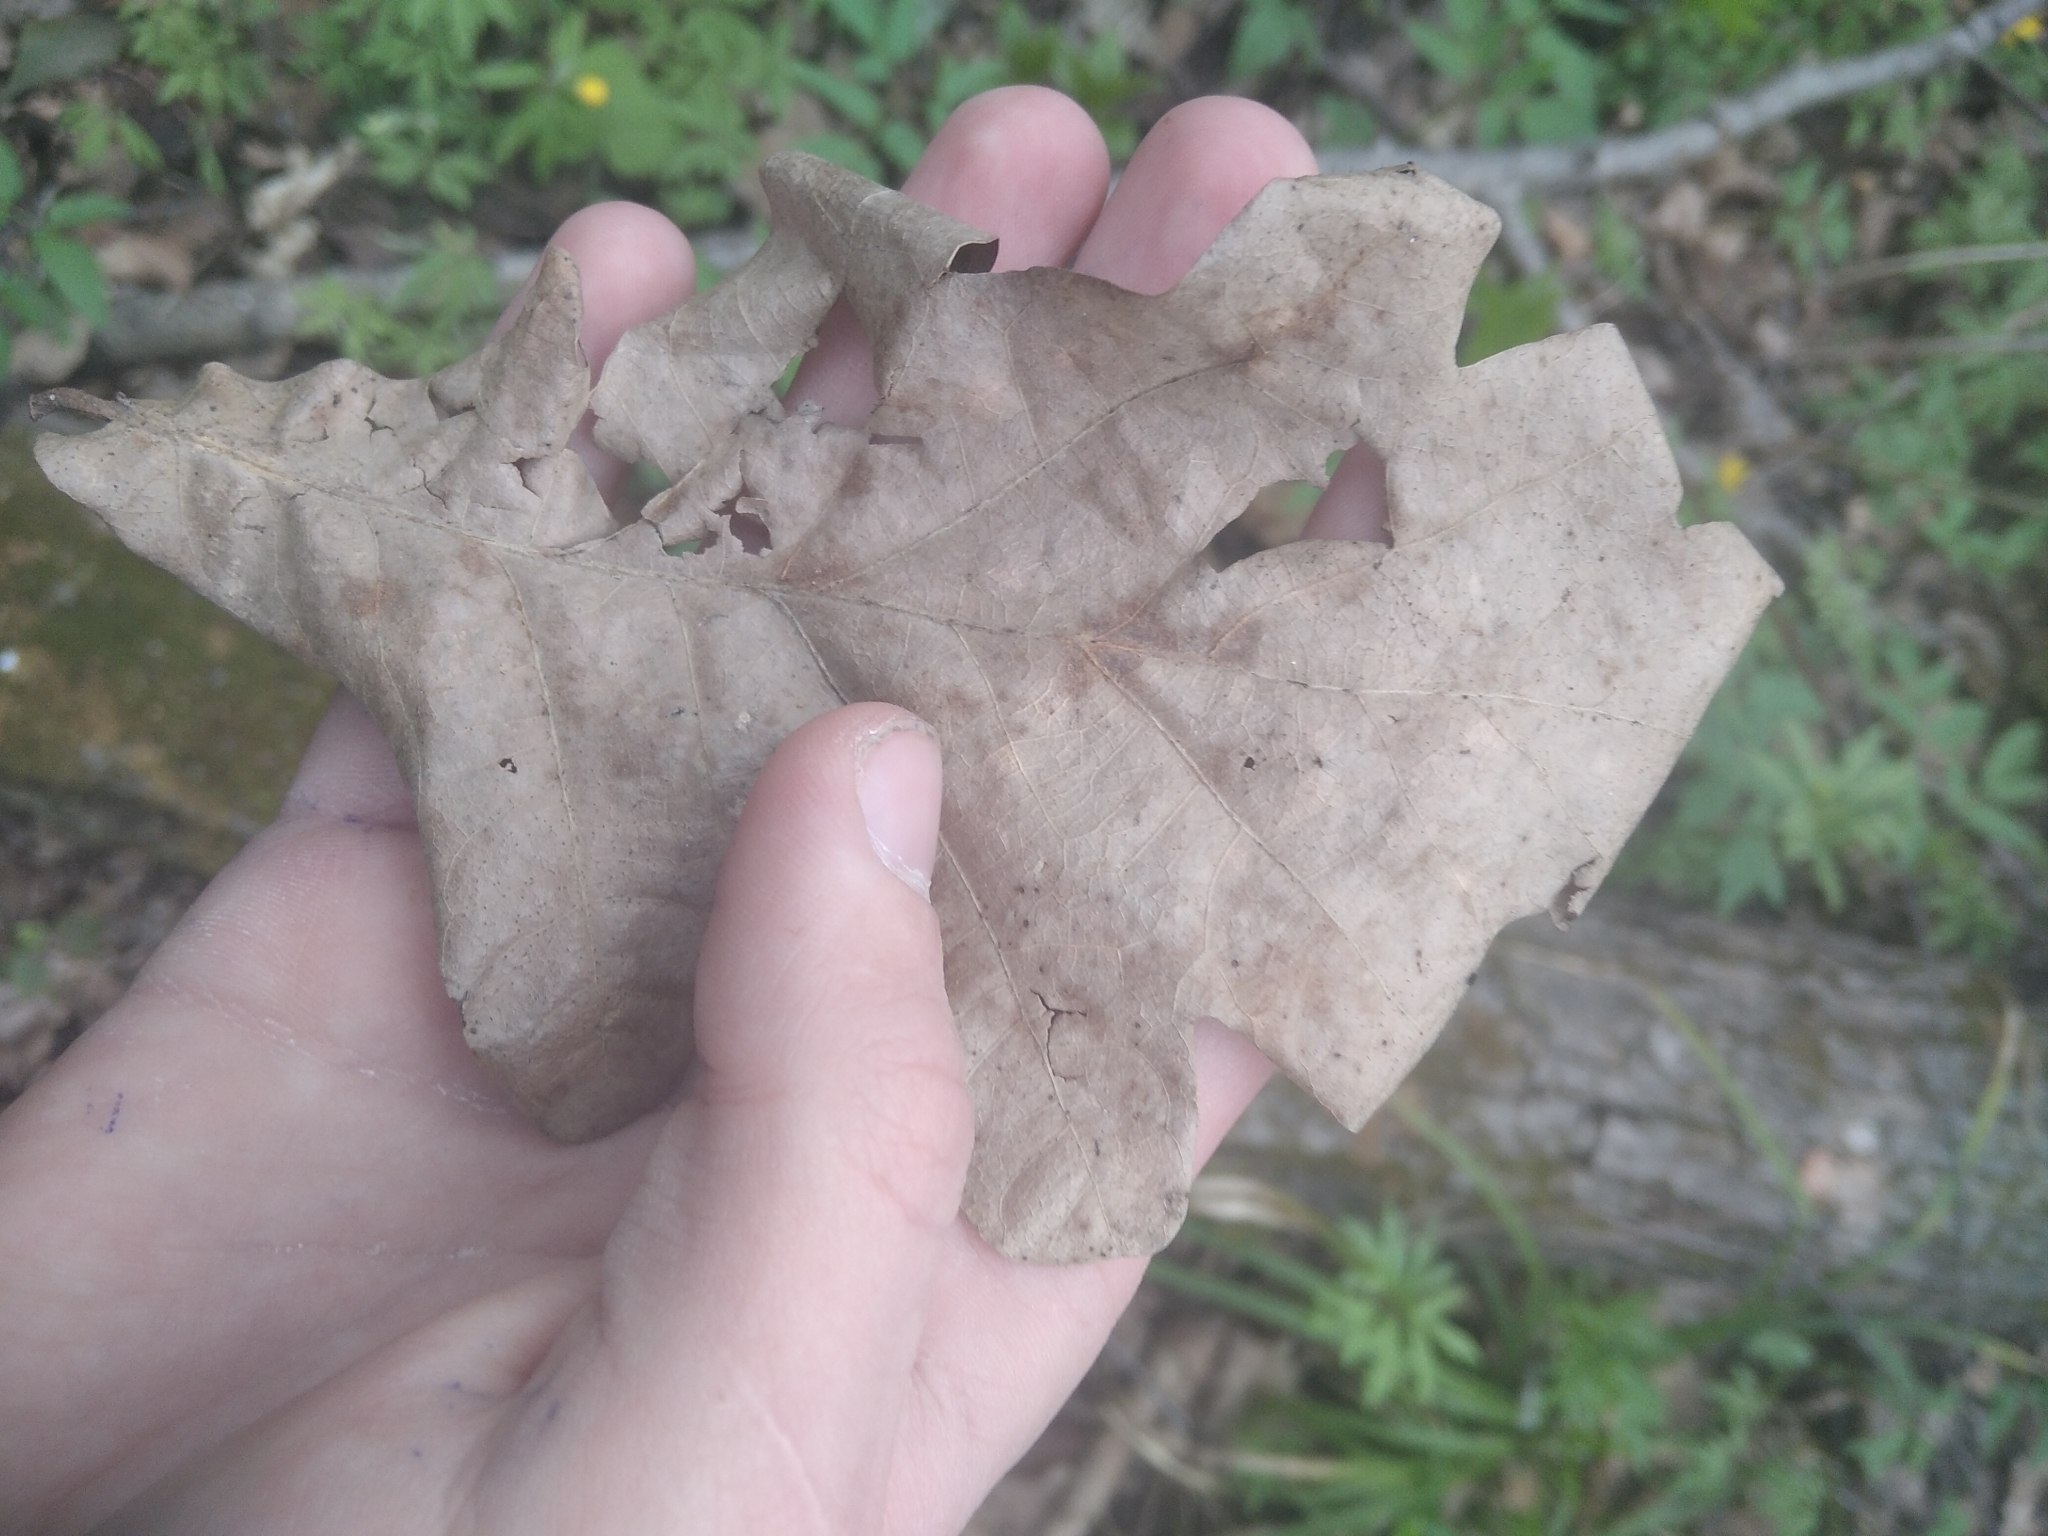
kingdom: Plantae
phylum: Tracheophyta
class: Magnoliopsida
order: Fagales
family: Fagaceae
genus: Quercus
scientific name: Quercus robur
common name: Pedunculate oak
